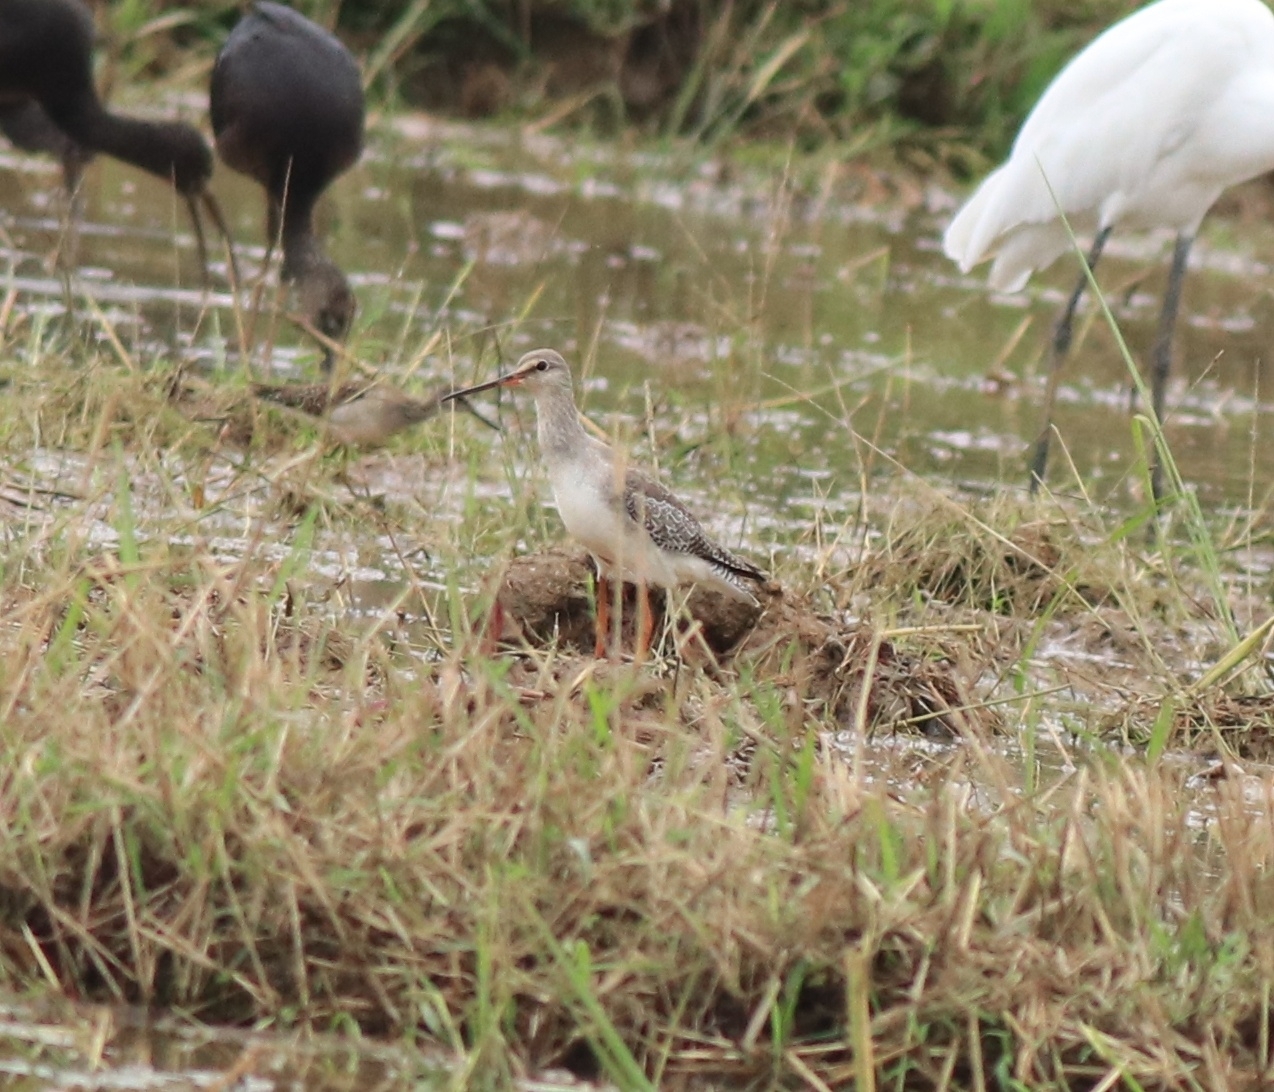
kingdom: Animalia
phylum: Chordata
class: Aves
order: Charadriiformes
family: Scolopacidae
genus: Tringa
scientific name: Tringa erythropus
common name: Spotted redshank
